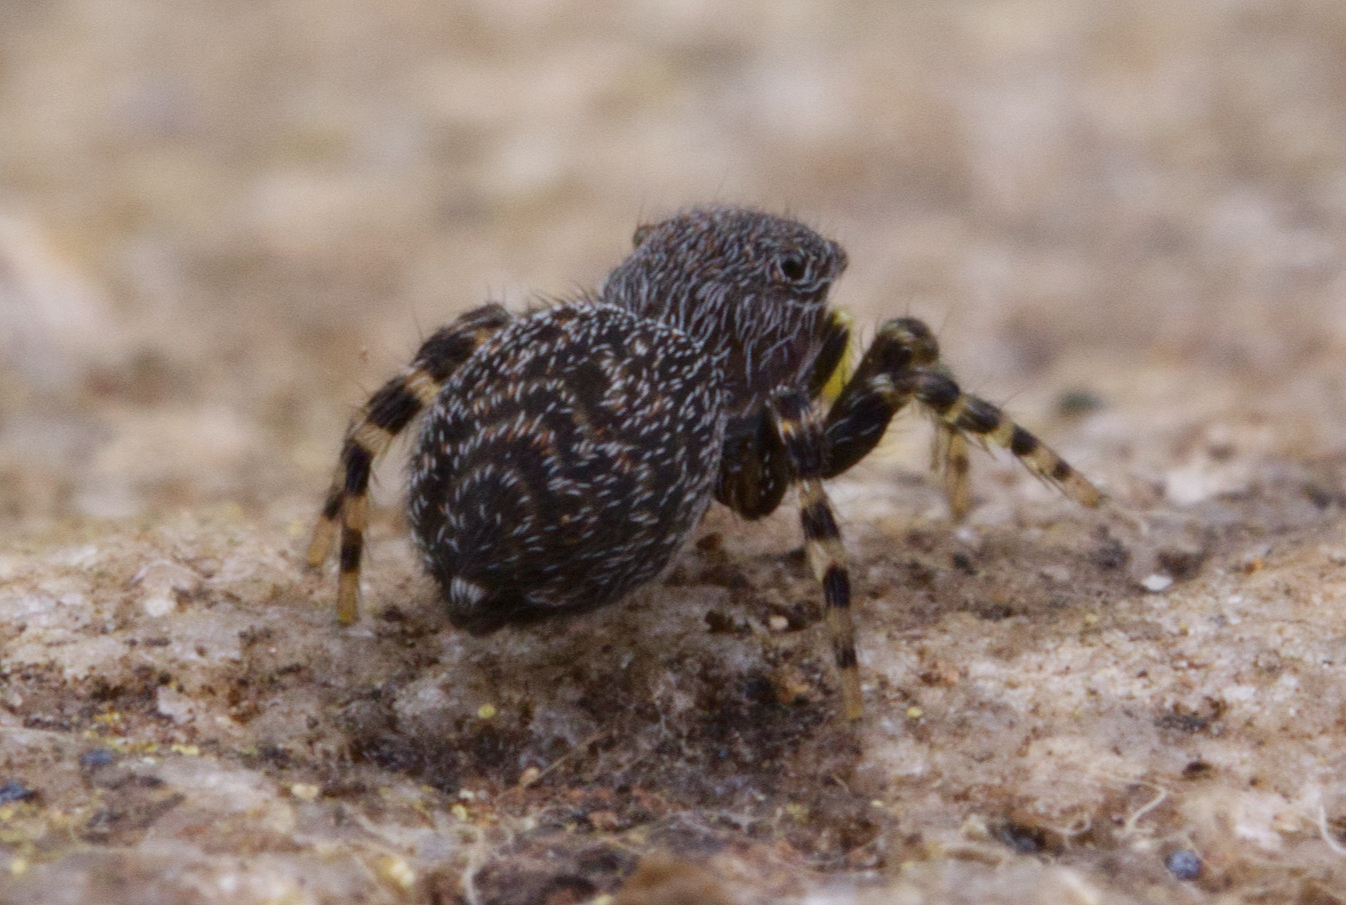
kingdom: Animalia
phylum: Arthropoda
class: Arachnida
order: Araneae
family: Salticidae
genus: Talavera
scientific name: Talavera minuta
